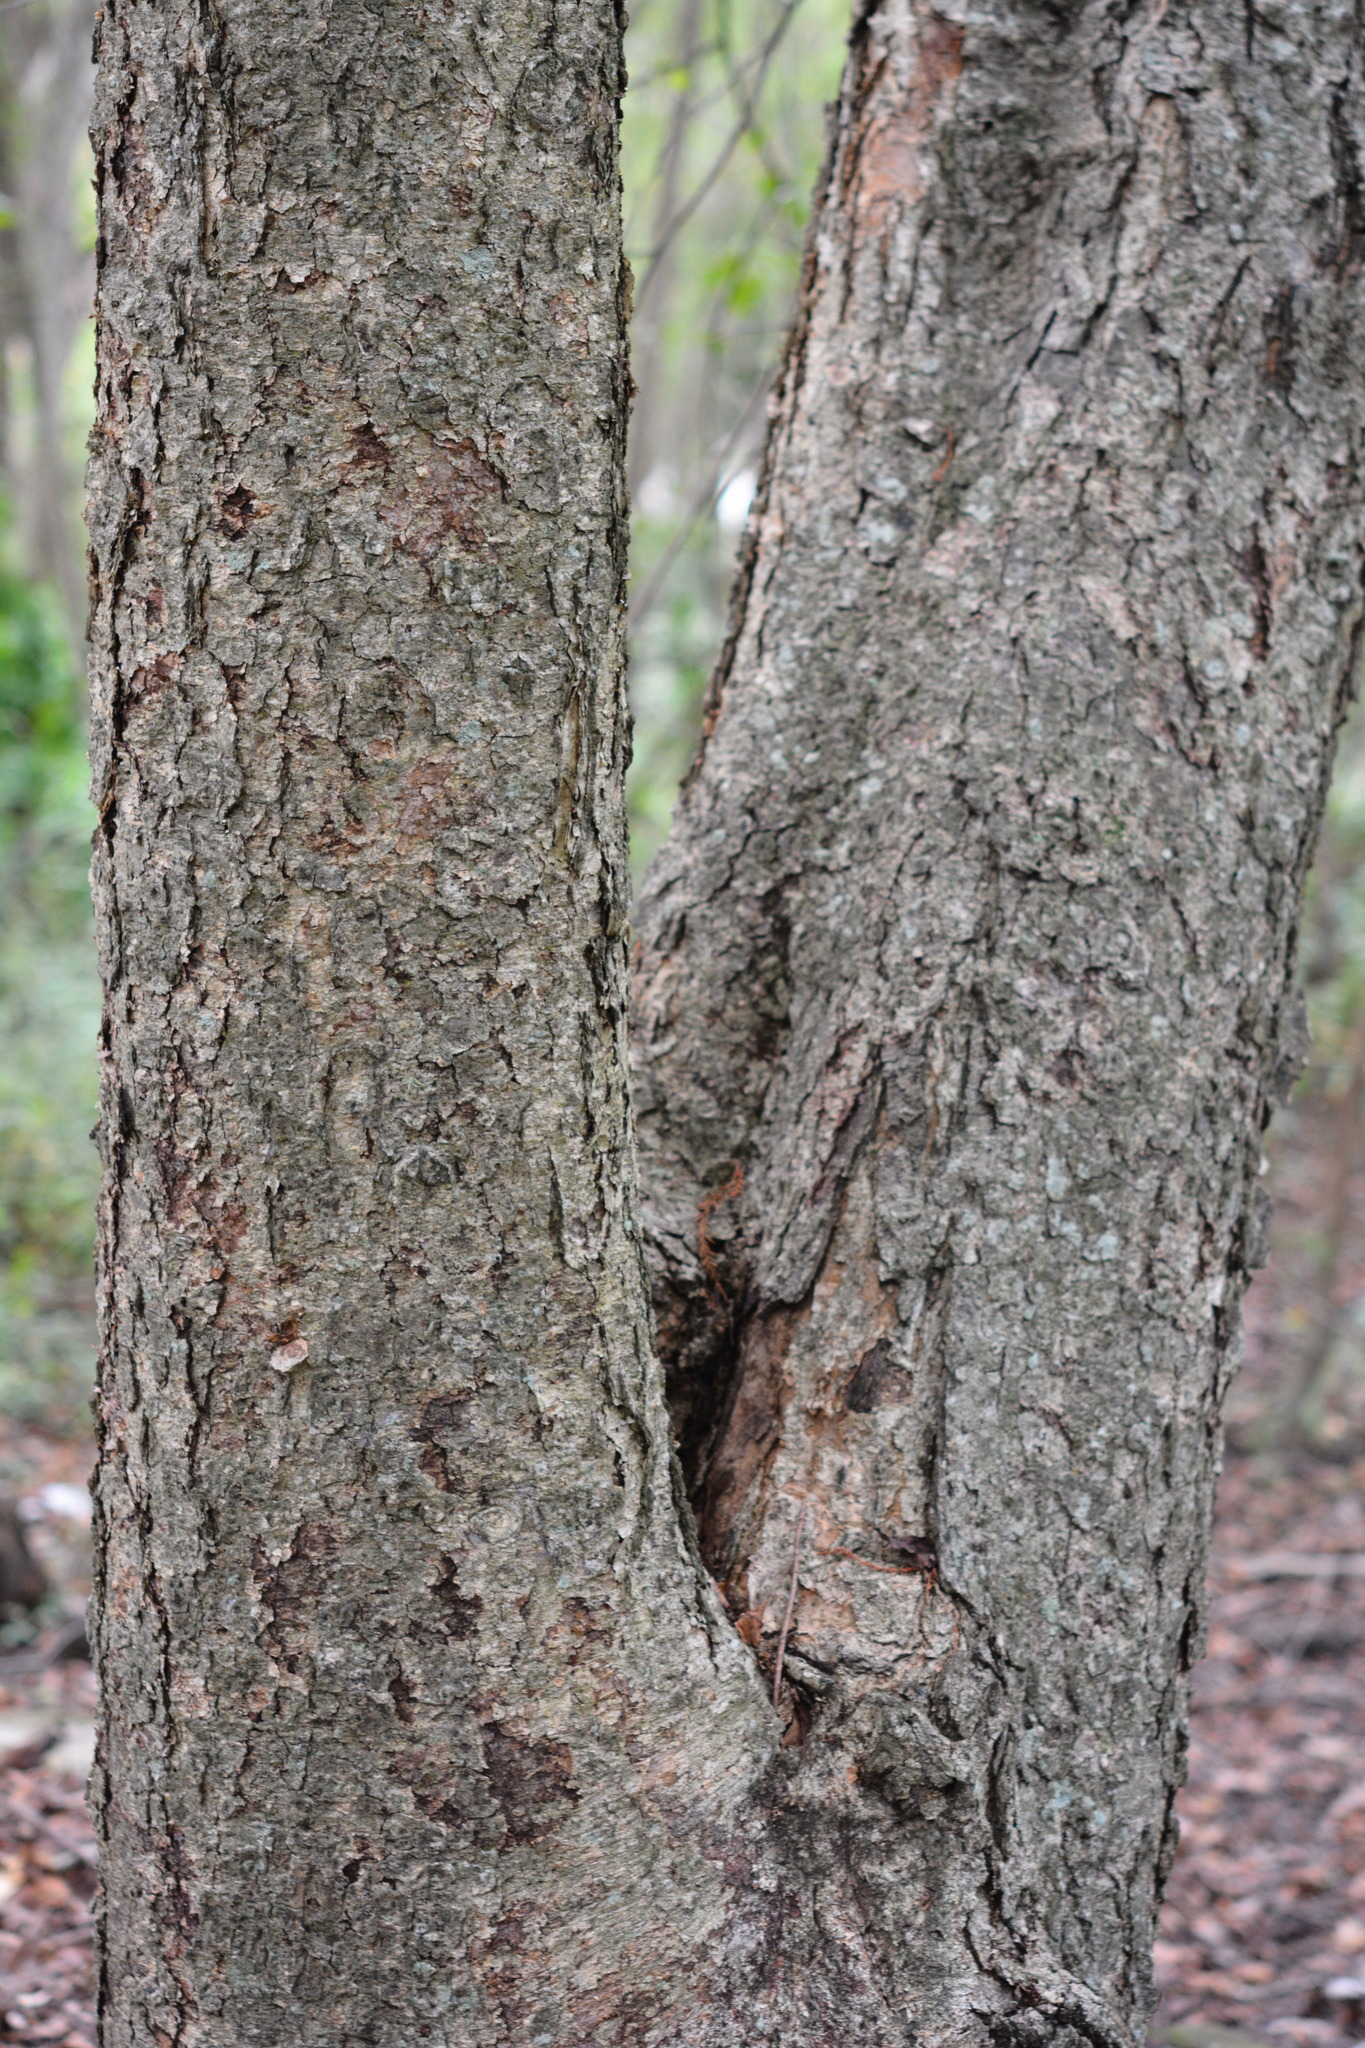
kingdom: Plantae
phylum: Tracheophyta
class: Magnoliopsida
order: Fagales
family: Betulaceae
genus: Betula
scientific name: Betula nigra
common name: Black birch
